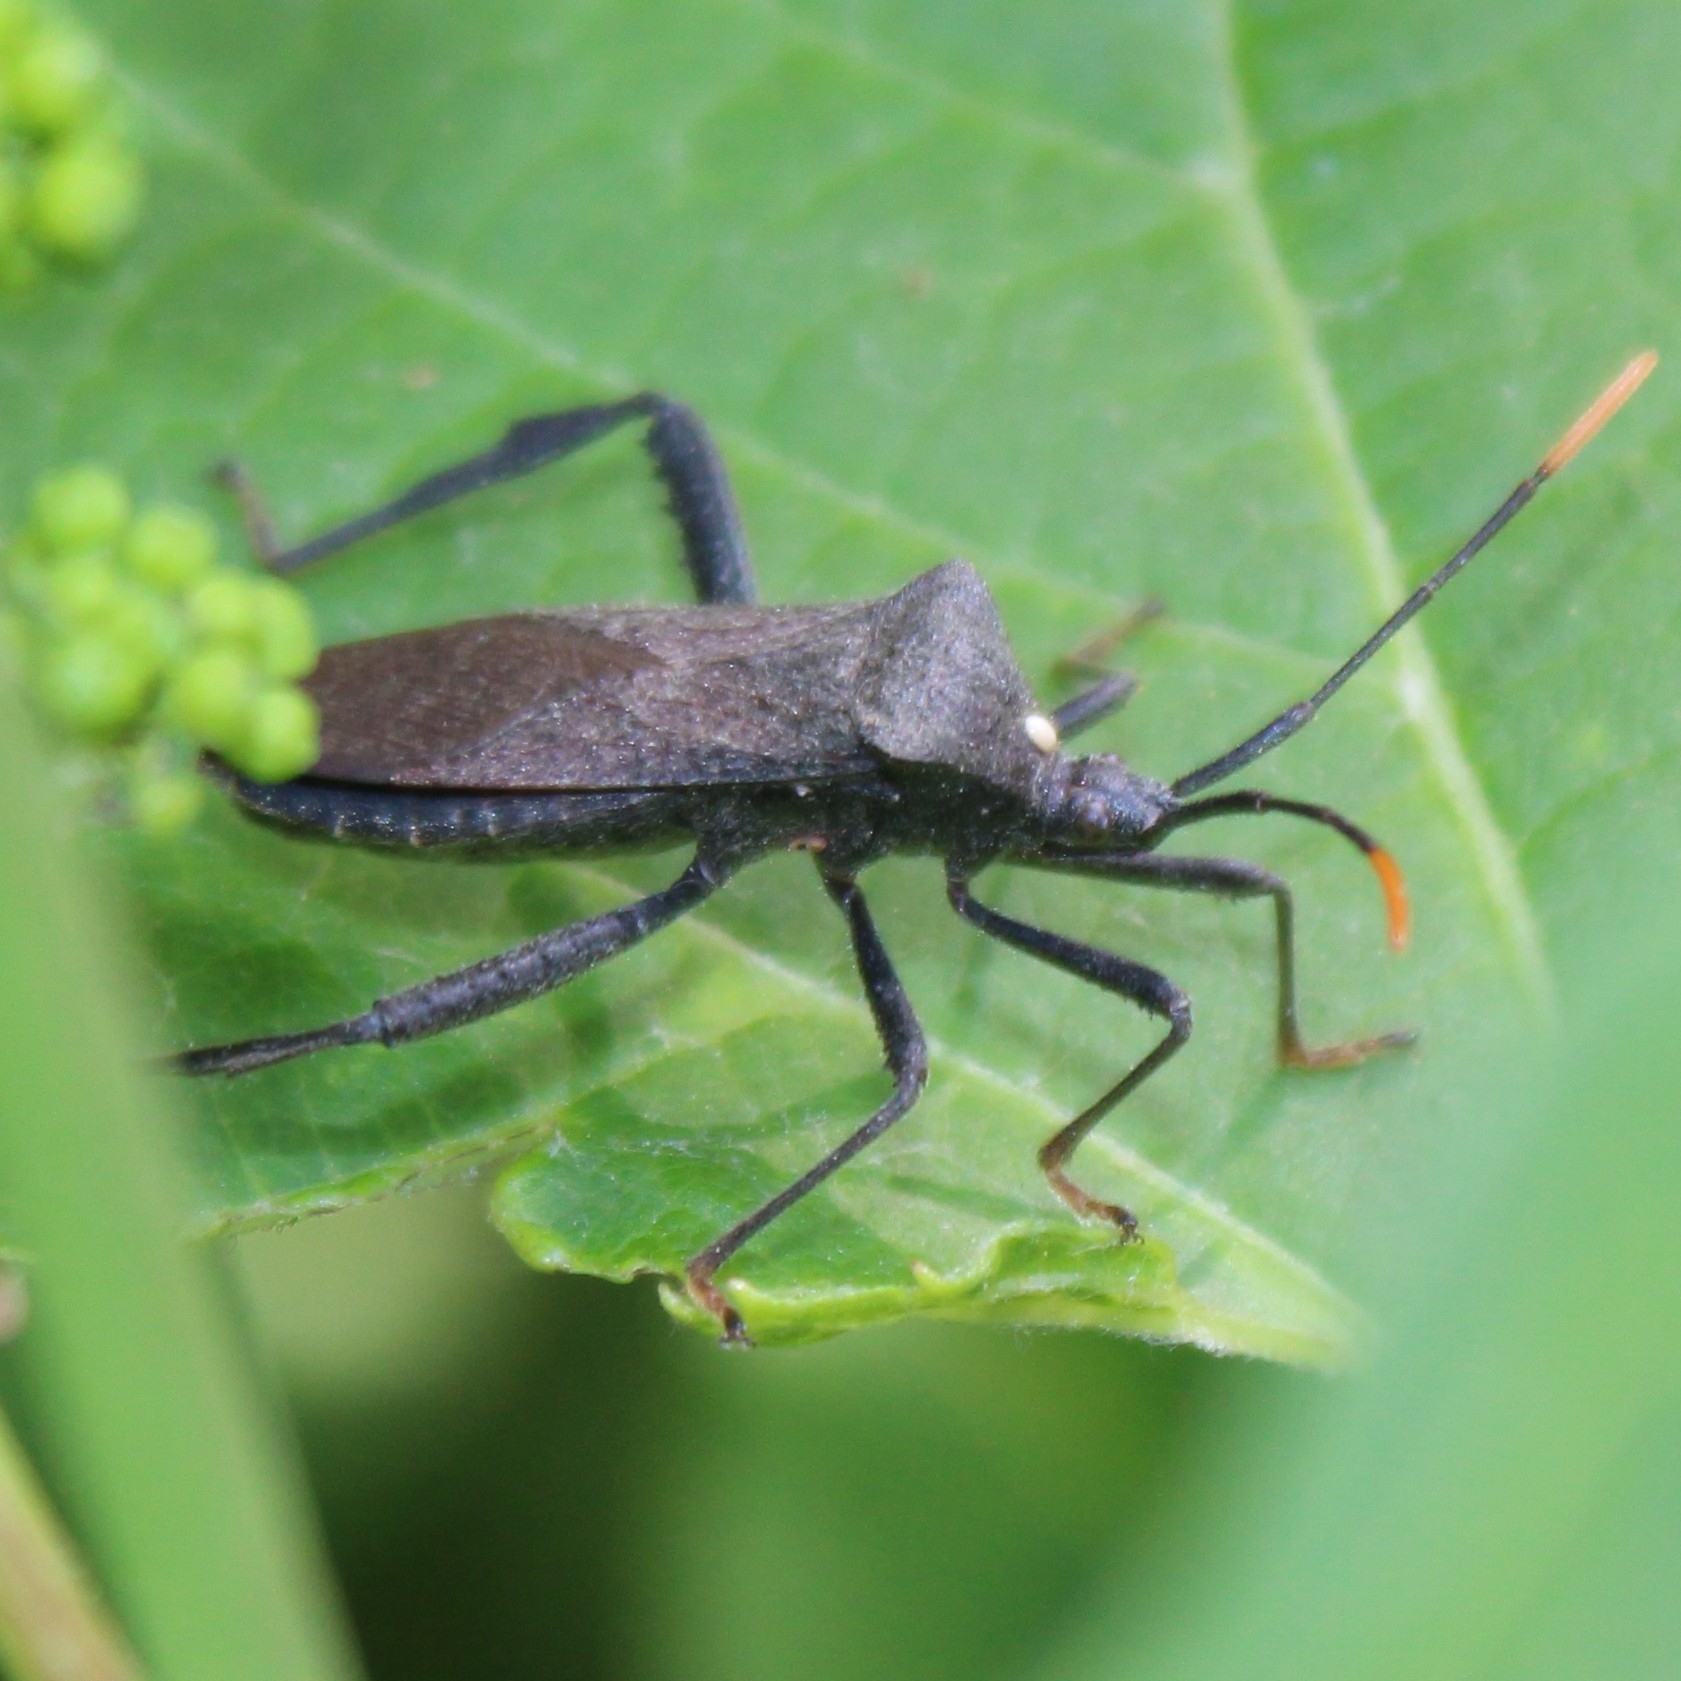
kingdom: Animalia
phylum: Arthropoda
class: Insecta
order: Hemiptera
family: Coreidae
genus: Acanthocephala
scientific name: Acanthocephala terminalis
